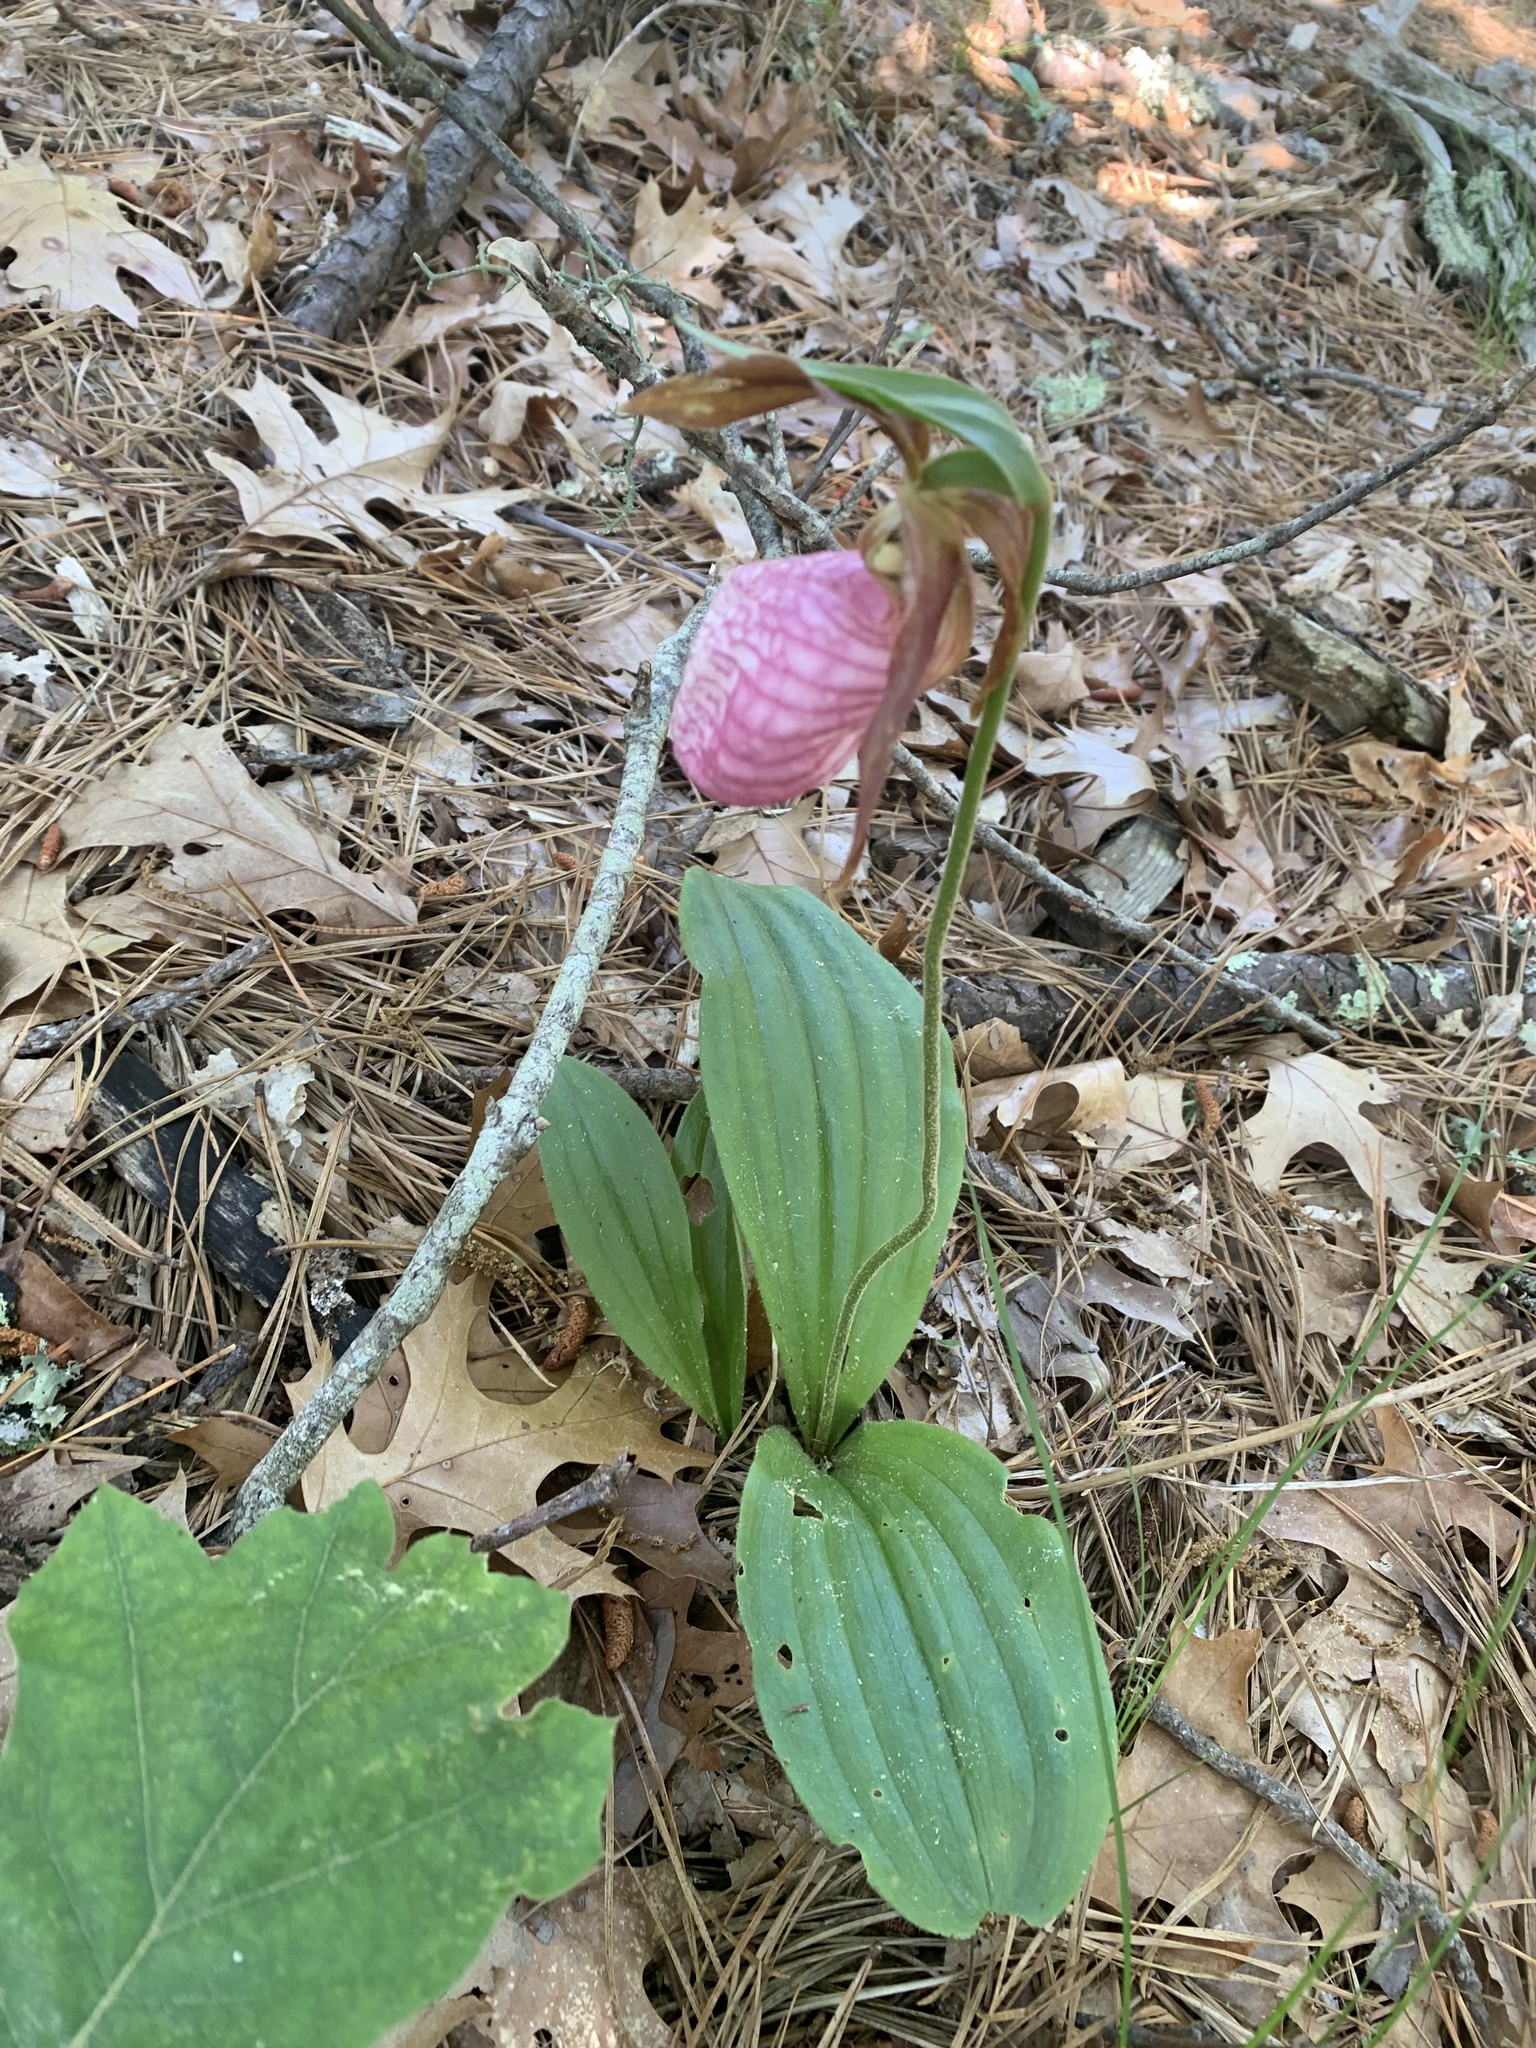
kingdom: Plantae
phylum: Tracheophyta
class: Liliopsida
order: Asparagales
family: Orchidaceae
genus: Cypripedium
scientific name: Cypripedium acaule
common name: Pink lady's-slipper
